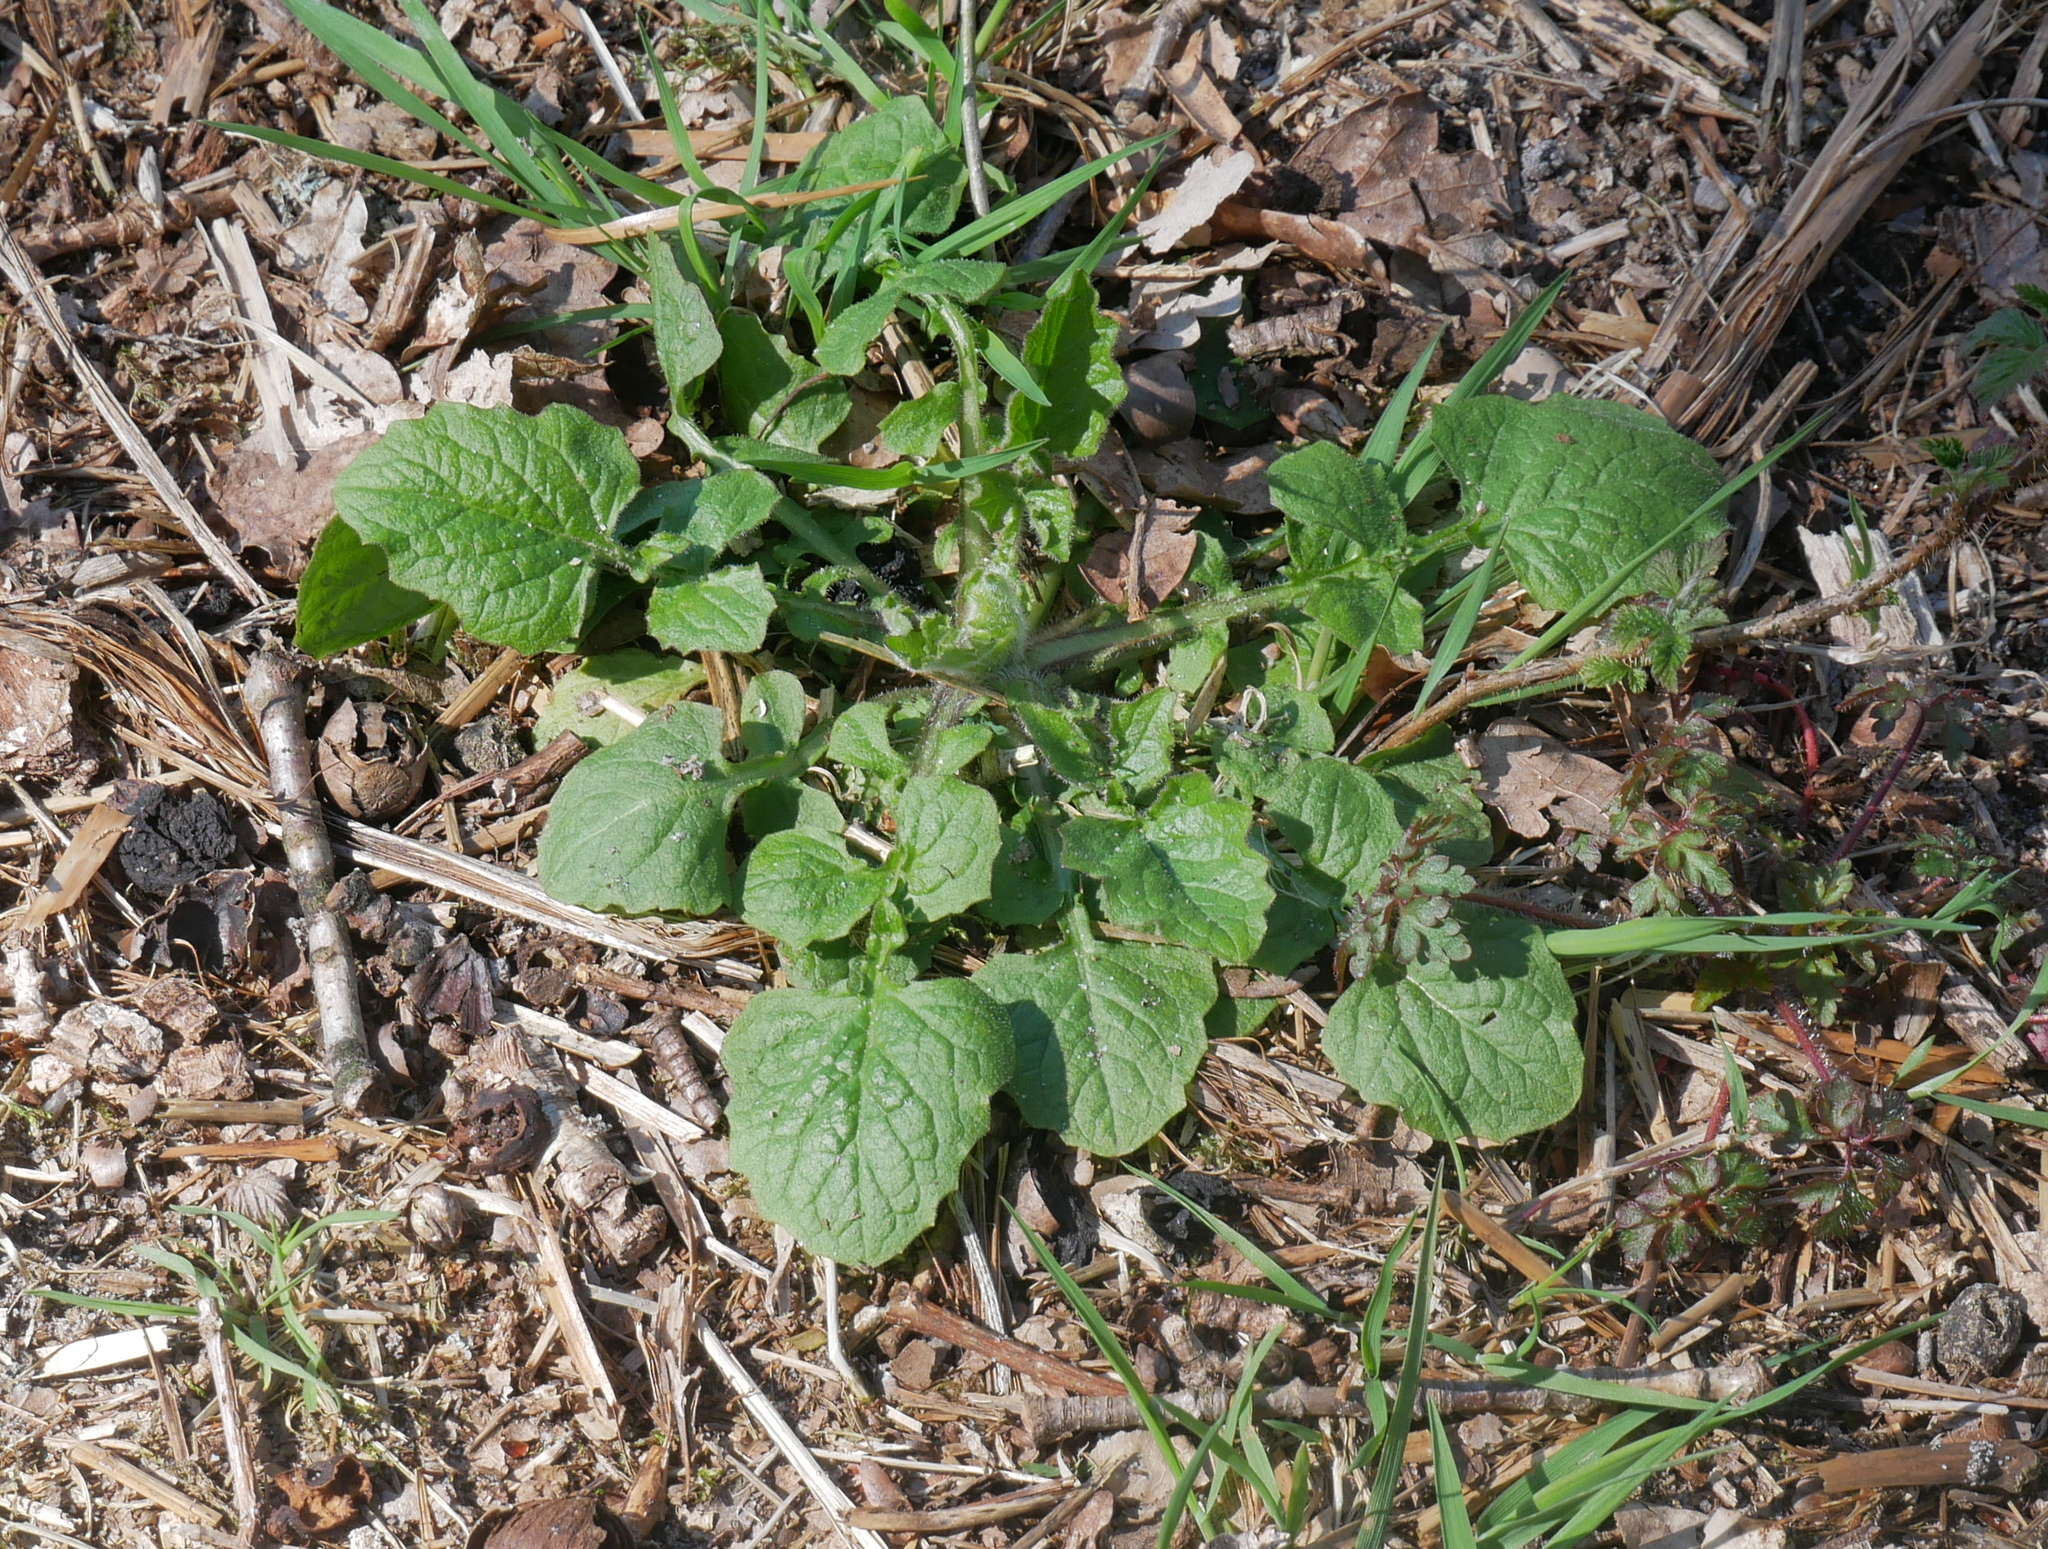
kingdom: Plantae
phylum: Tracheophyta
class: Magnoliopsida
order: Asterales
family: Asteraceae
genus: Lapsana
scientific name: Lapsana communis
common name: Nipplewort
